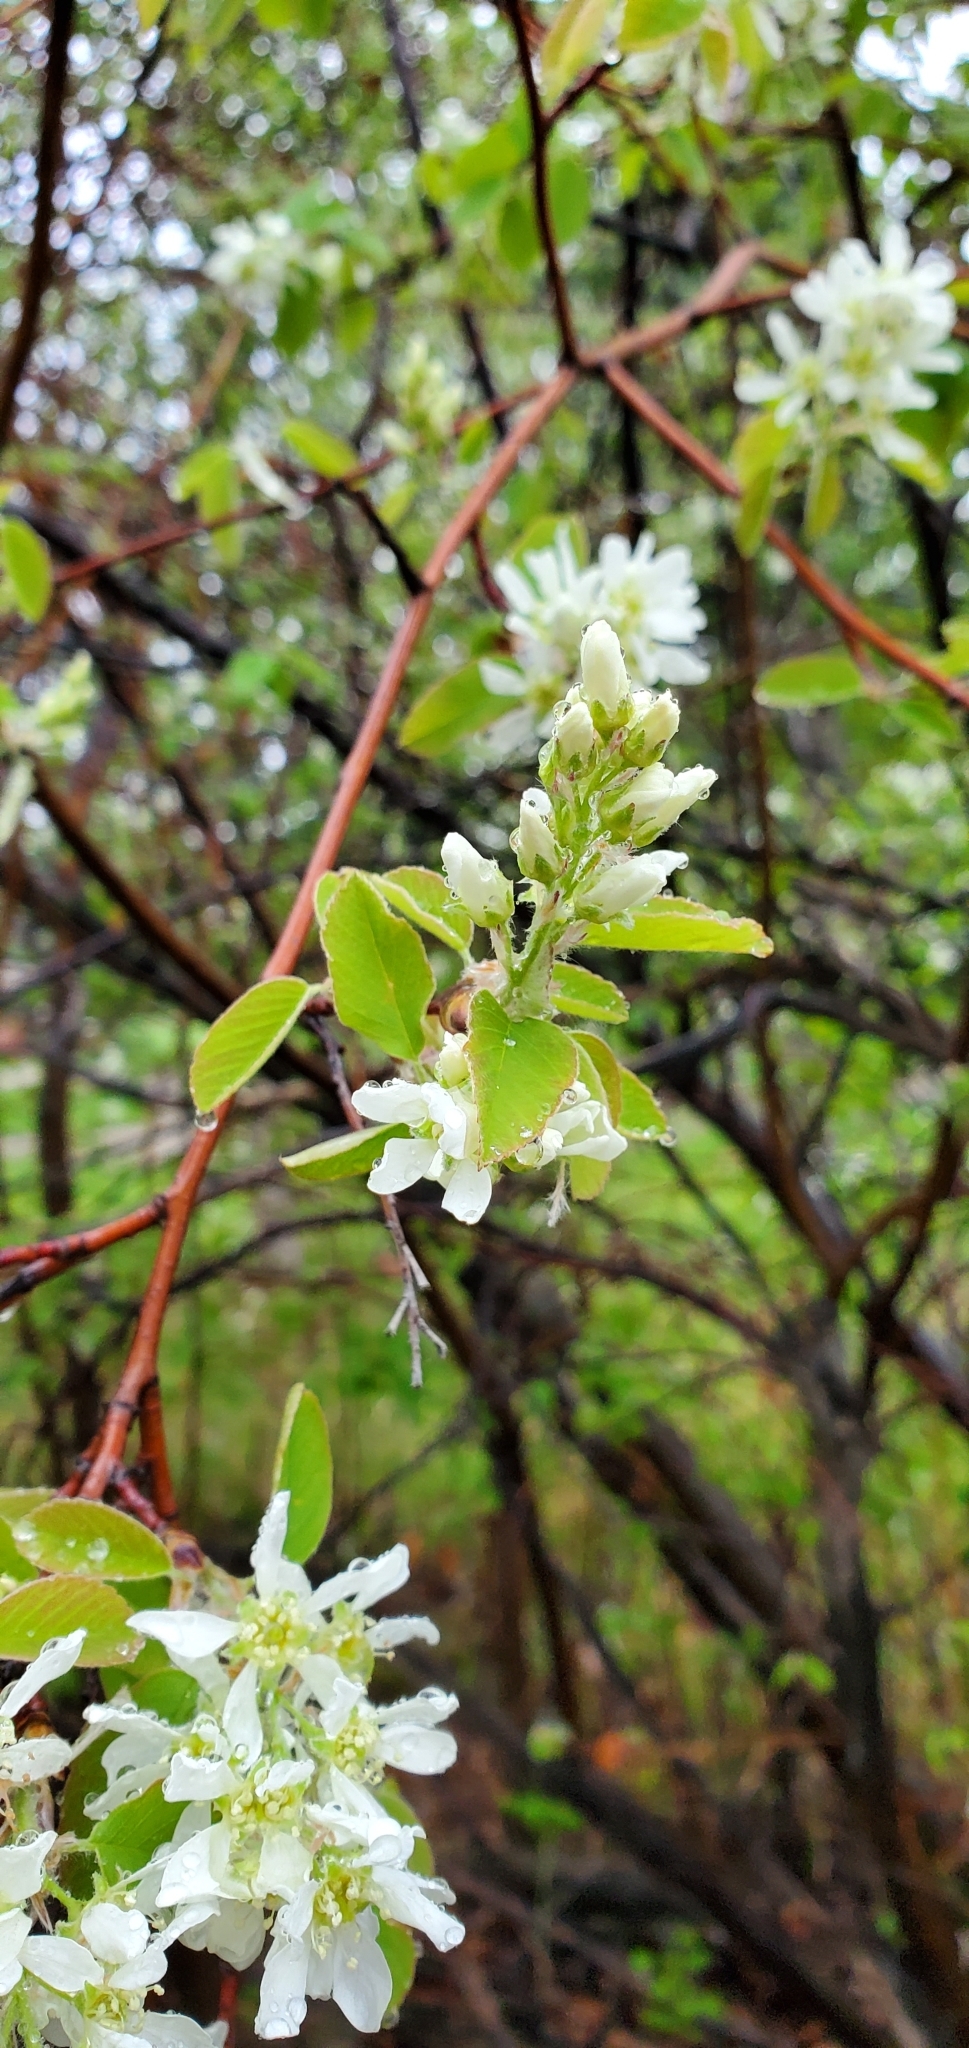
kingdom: Plantae
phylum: Tracheophyta
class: Magnoliopsida
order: Rosales
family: Rosaceae
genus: Amelanchier
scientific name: Amelanchier alnifolia
